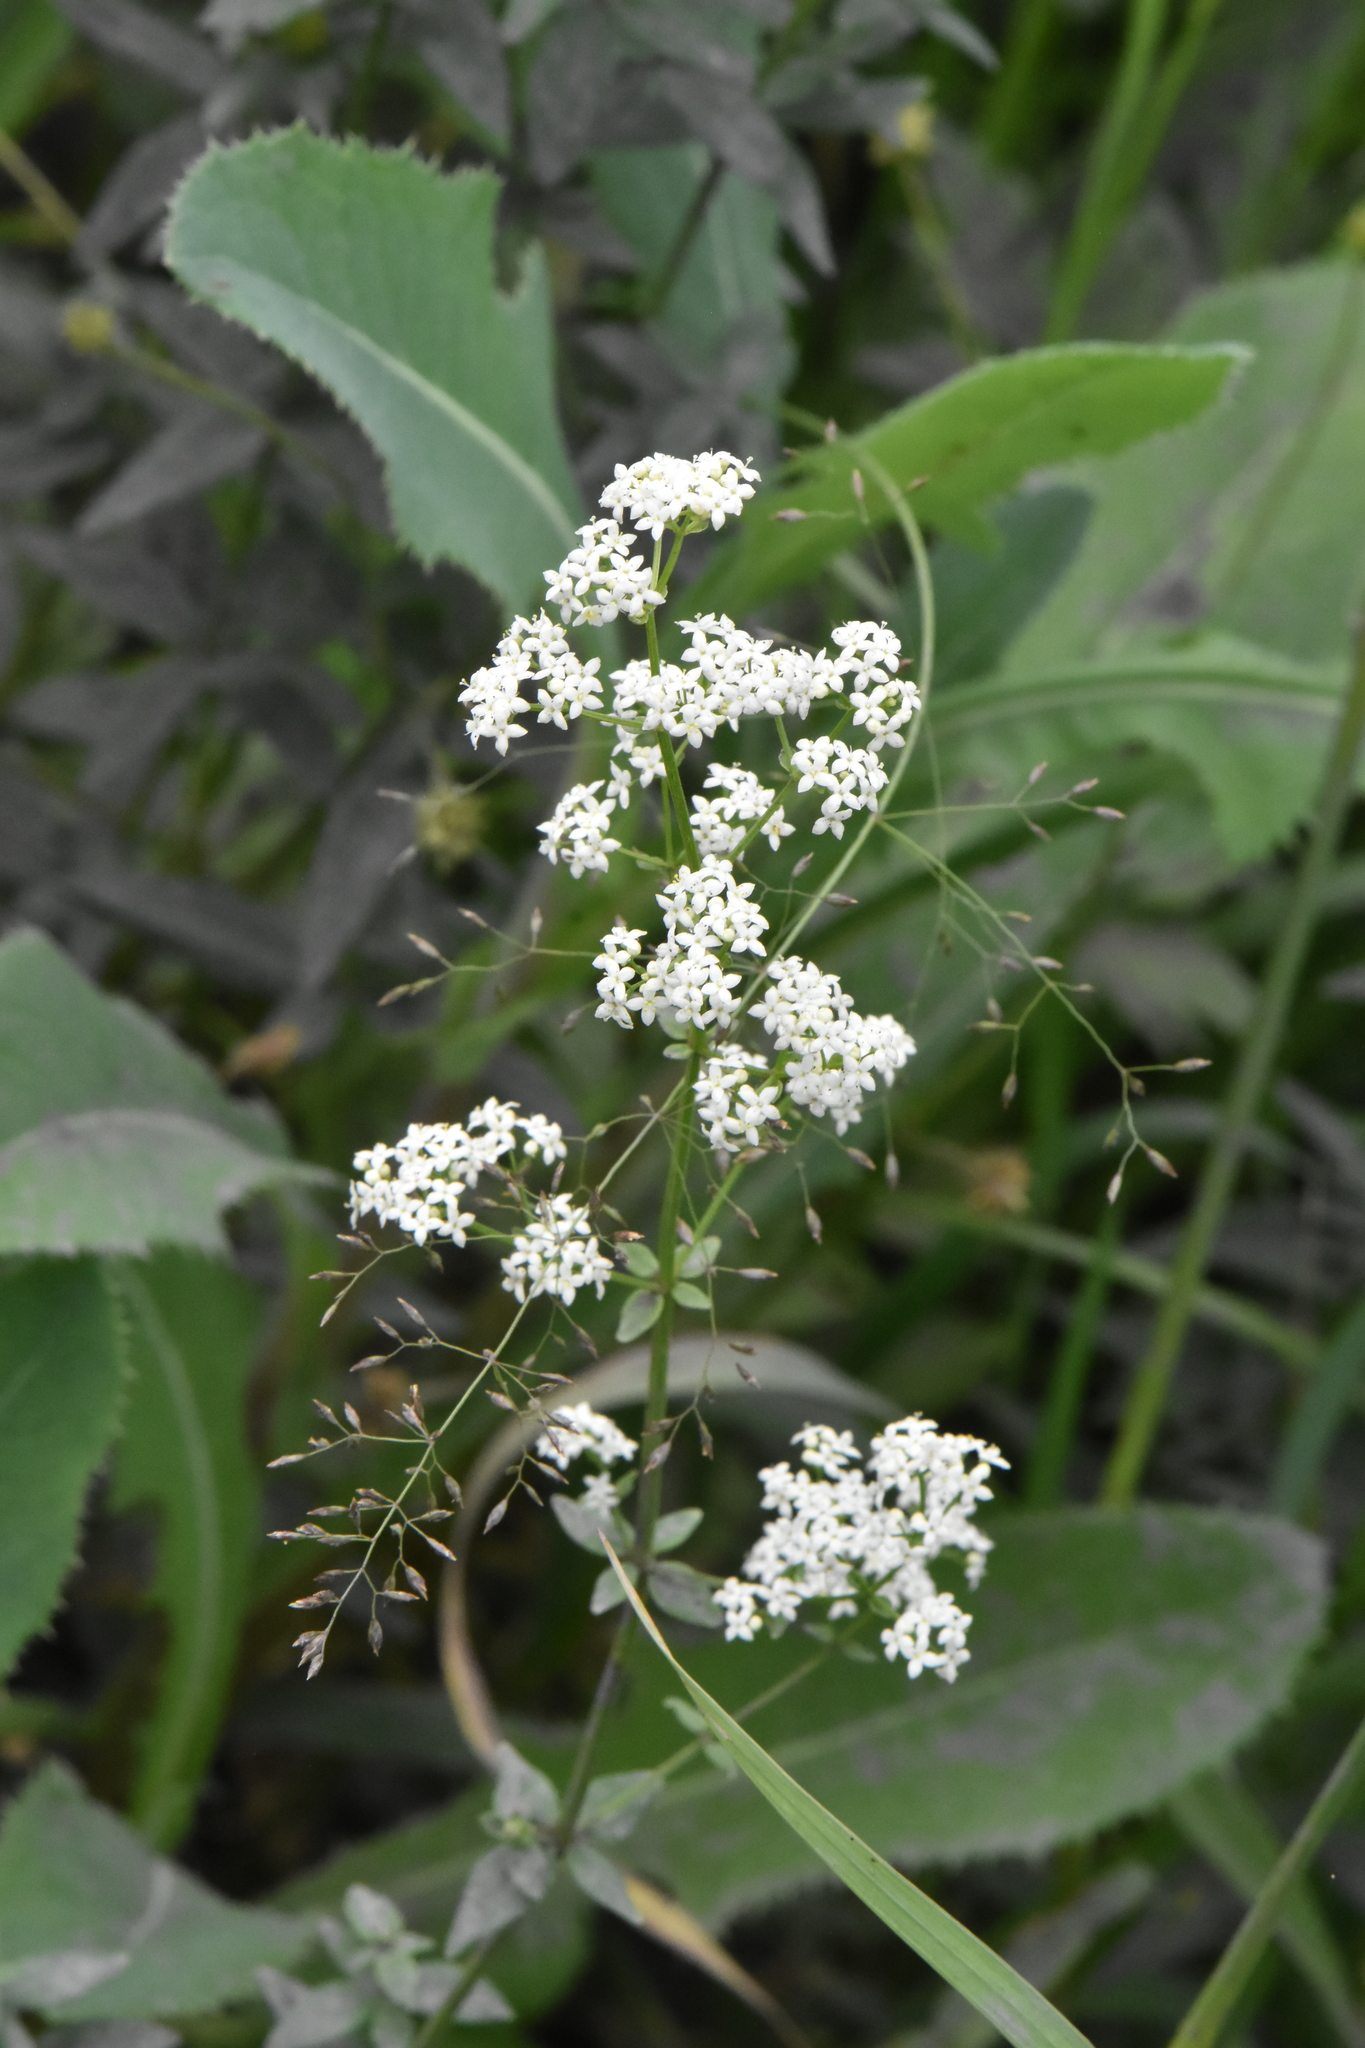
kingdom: Plantae
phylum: Tracheophyta
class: Magnoliopsida
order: Gentianales
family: Rubiaceae
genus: Galium
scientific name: Galium boreale
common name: Northern bedstraw
